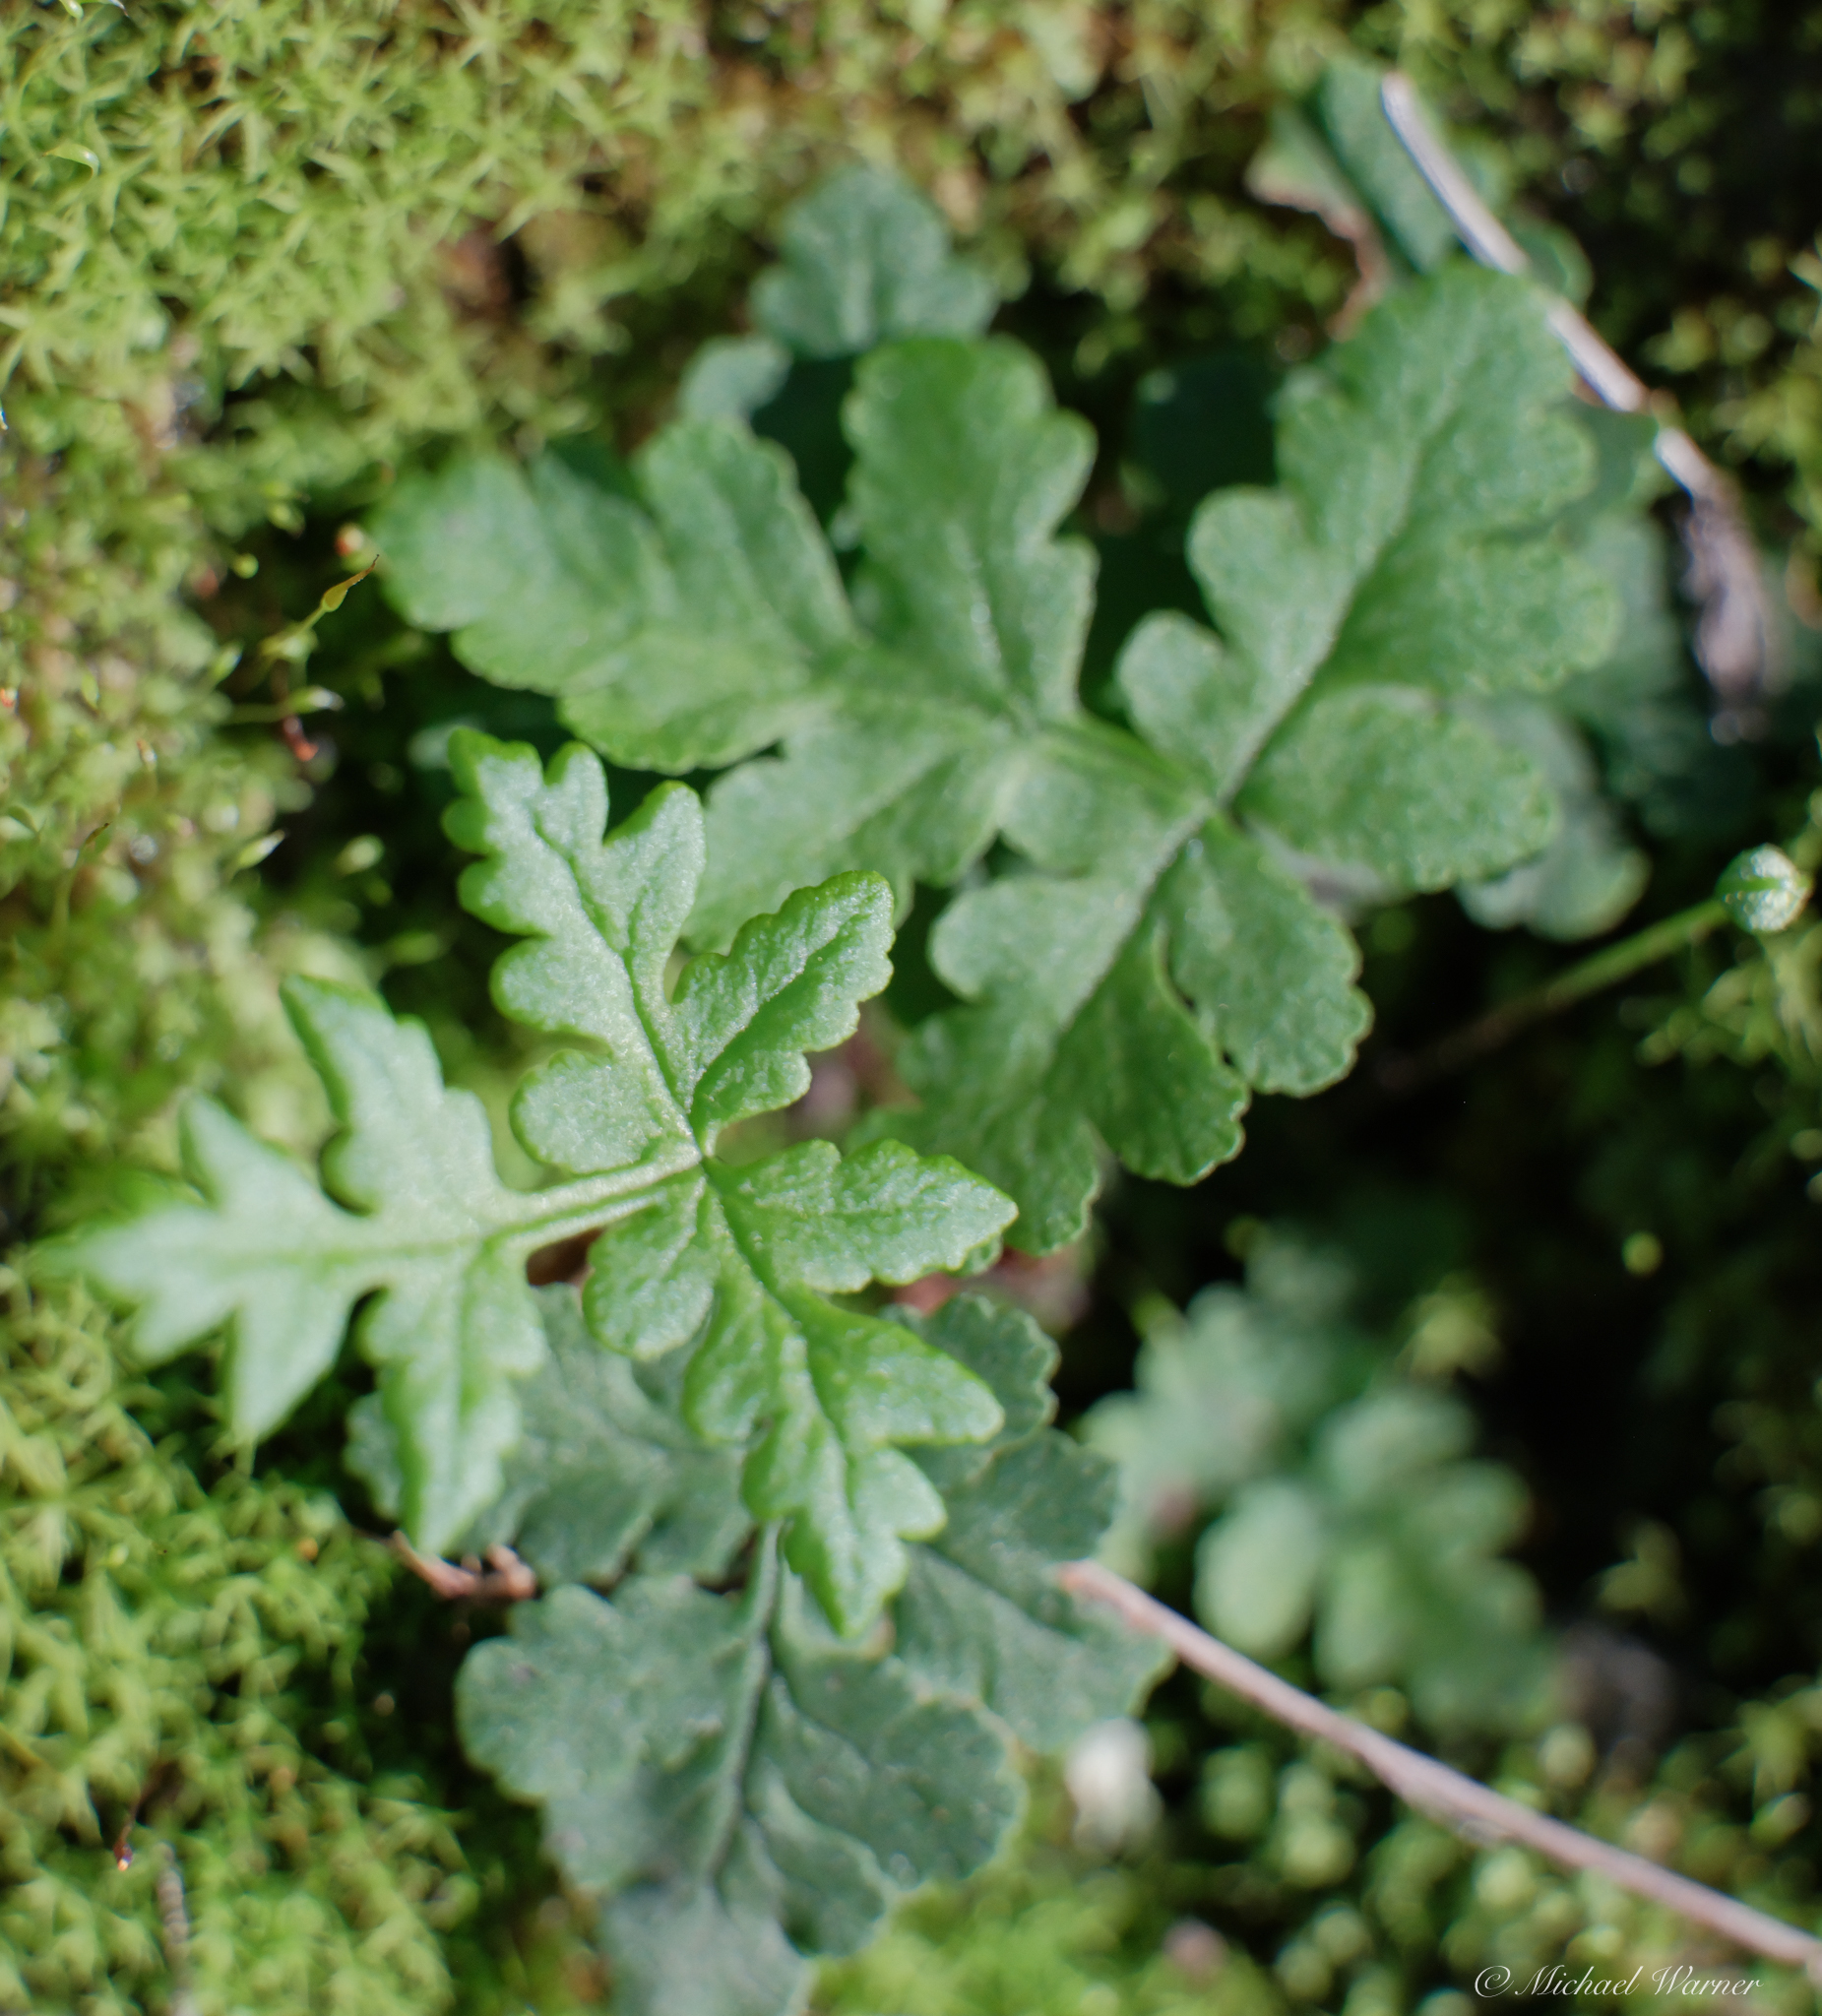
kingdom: Plantae
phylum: Tracheophyta
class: Polypodiopsida
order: Polypodiales
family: Pteridaceae
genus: Pentagramma
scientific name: Pentagramma triangularis
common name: Gold fern
